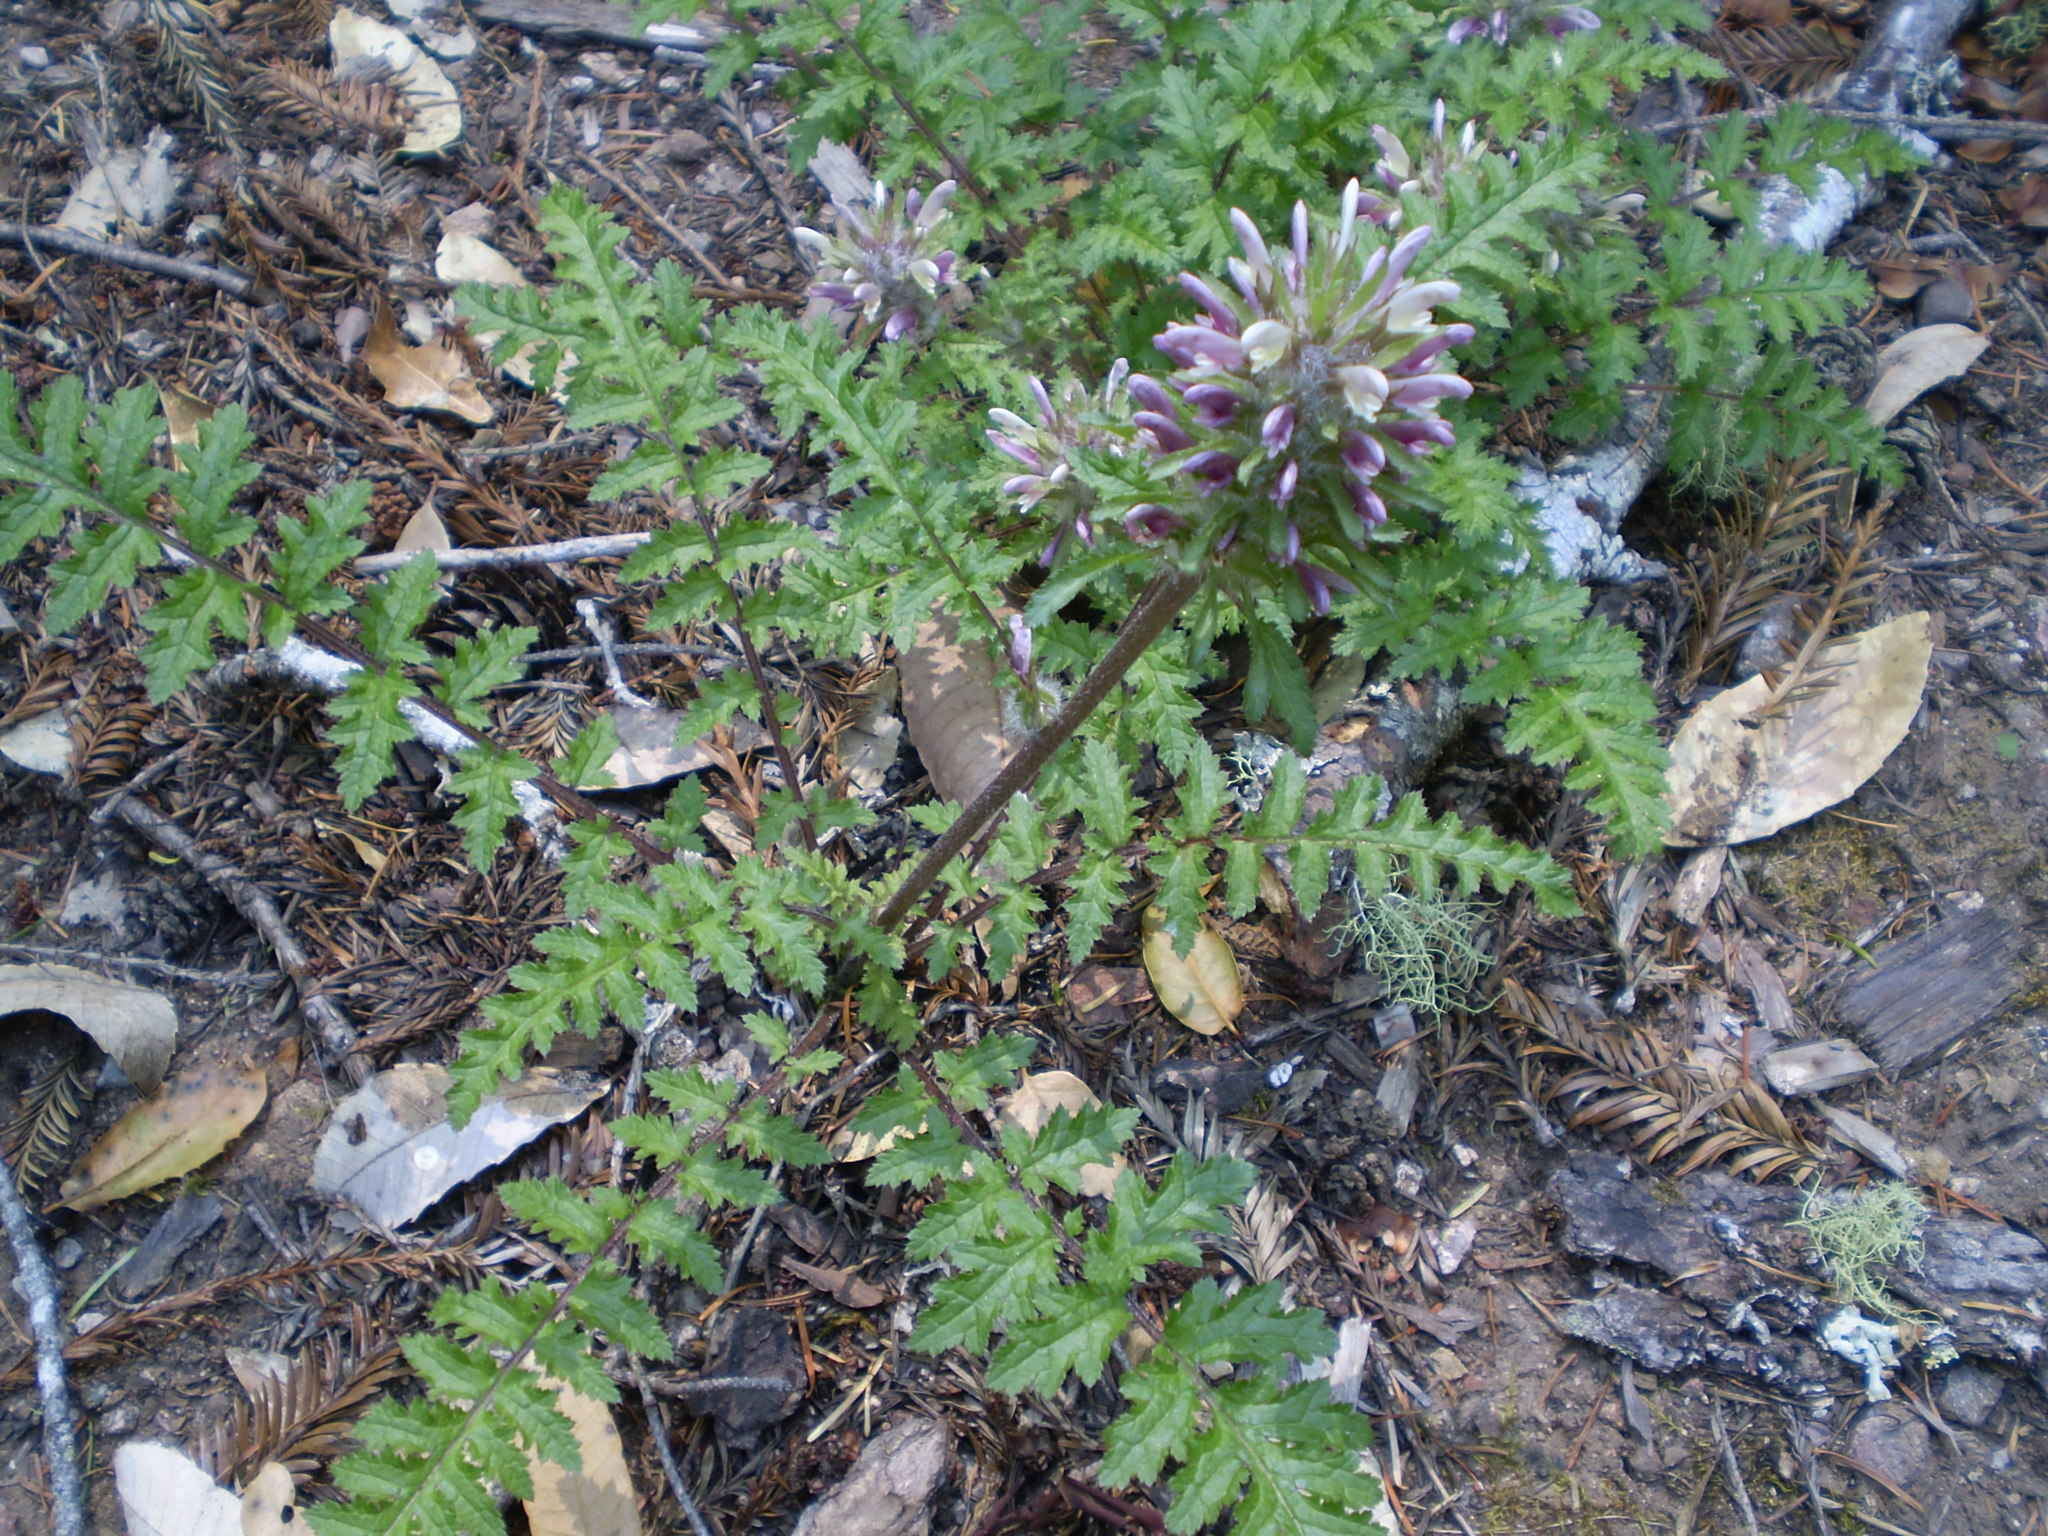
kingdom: Plantae
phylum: Tracheophyta
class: Magnoliopsida
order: Lamiales
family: Orobanchaceae
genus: Pedicularis
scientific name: Pedicularis dudleyi
